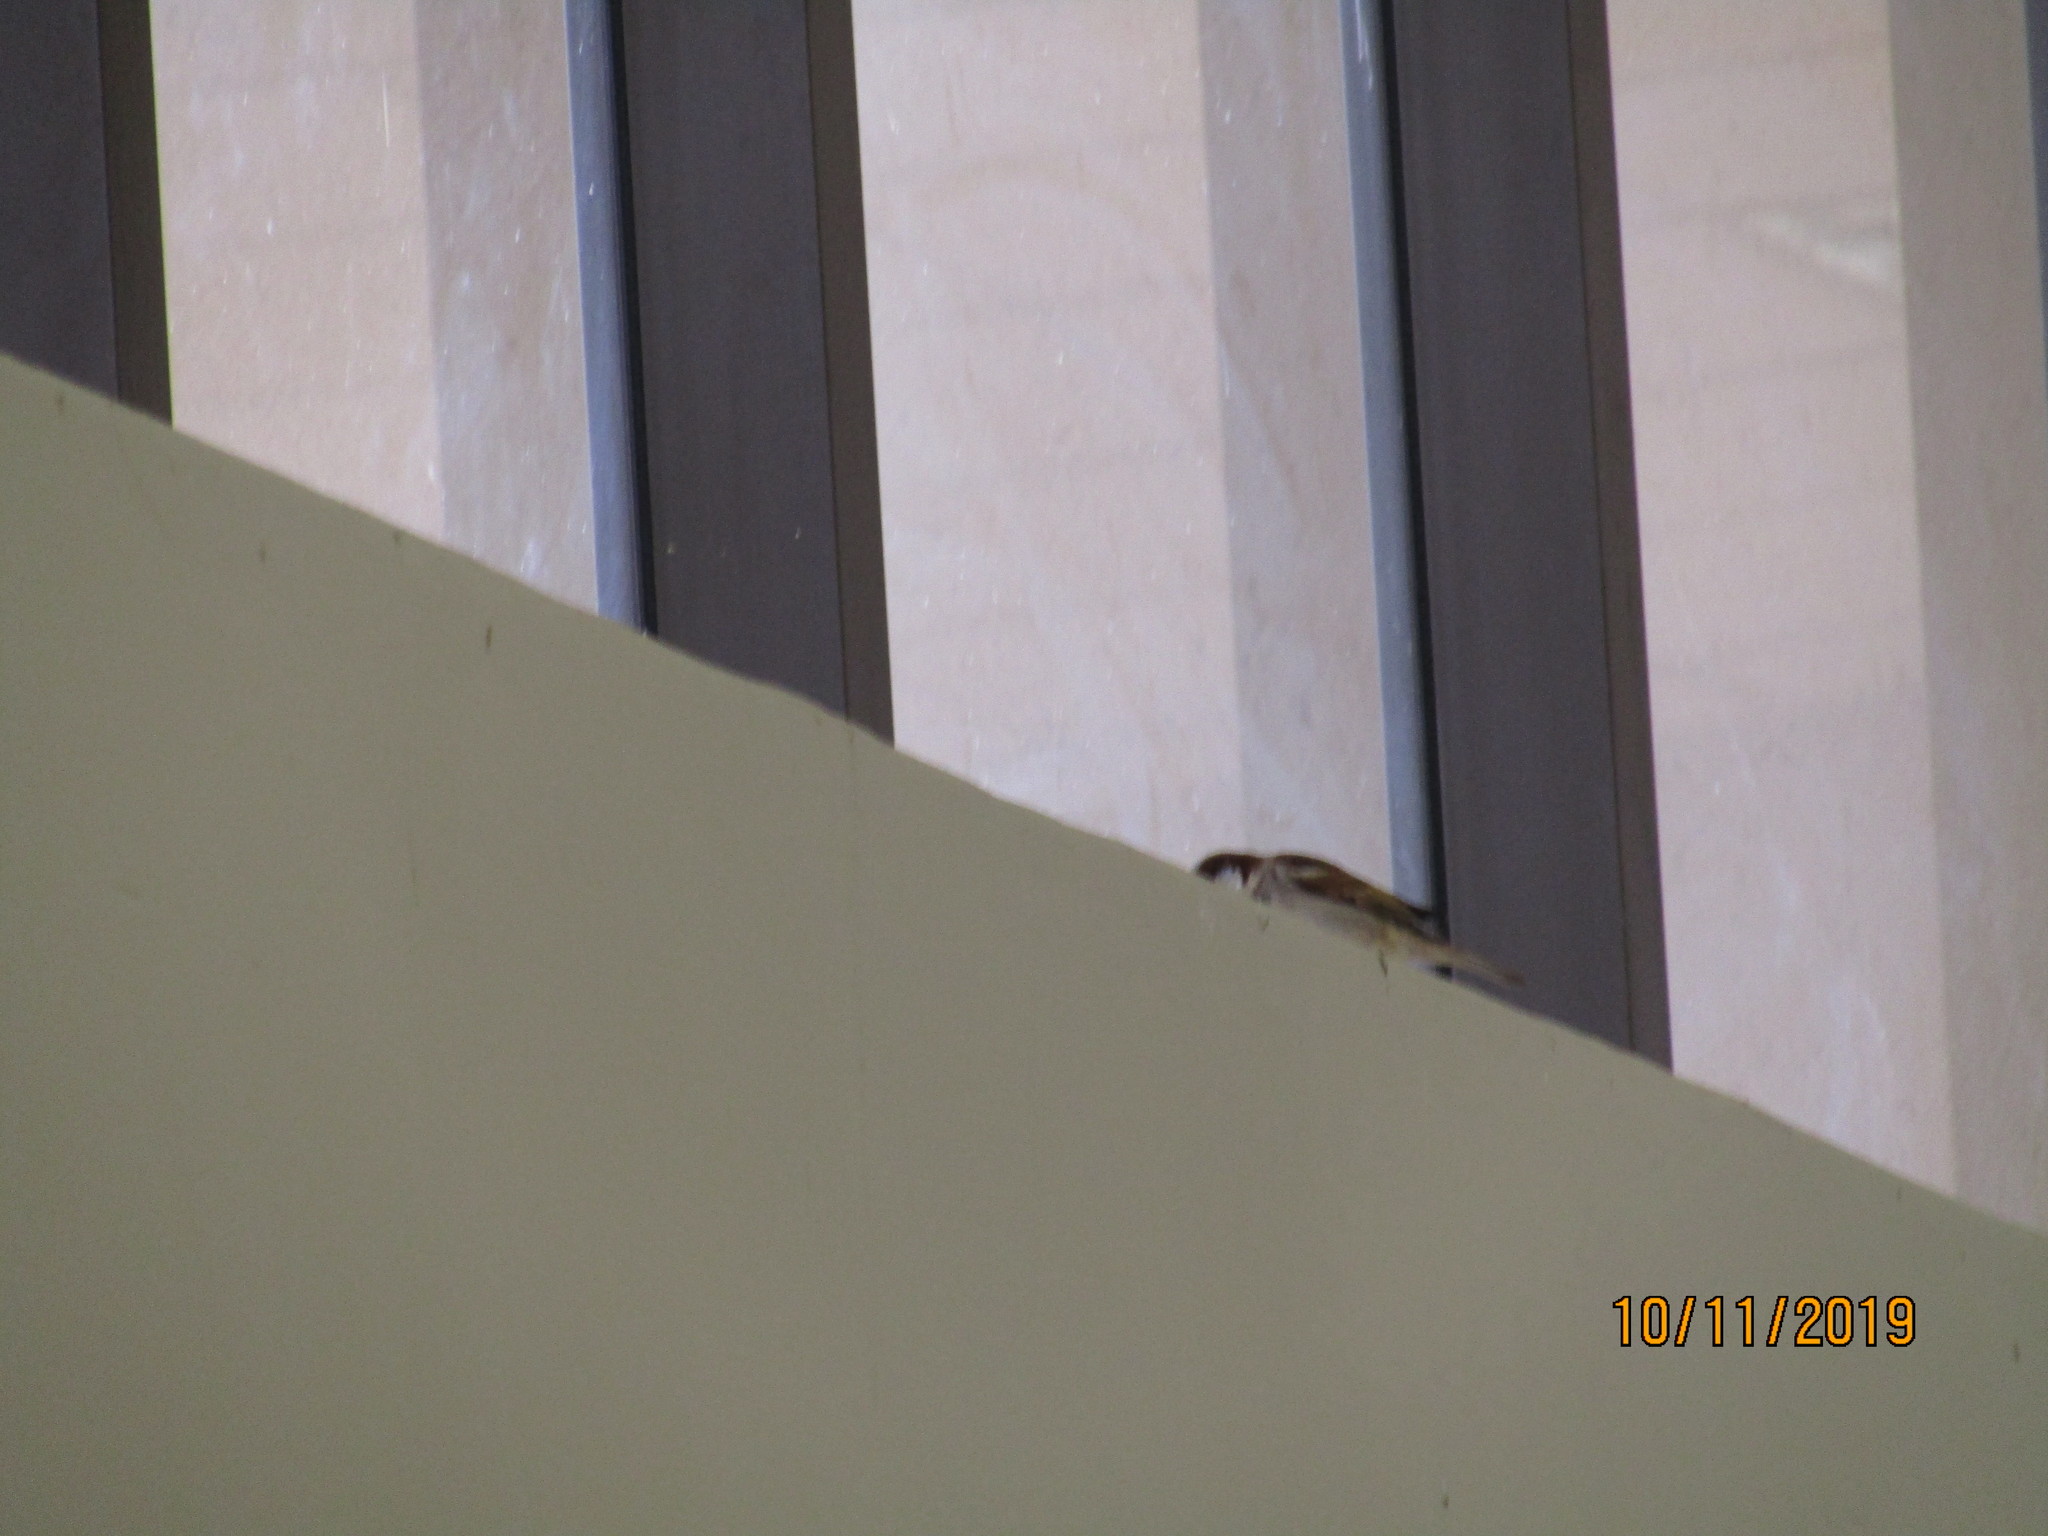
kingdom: Animalia
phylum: Chordata
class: Aves
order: Passeriformes
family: Passeridae
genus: Passer
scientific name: Passer domesticus
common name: House sparrow
